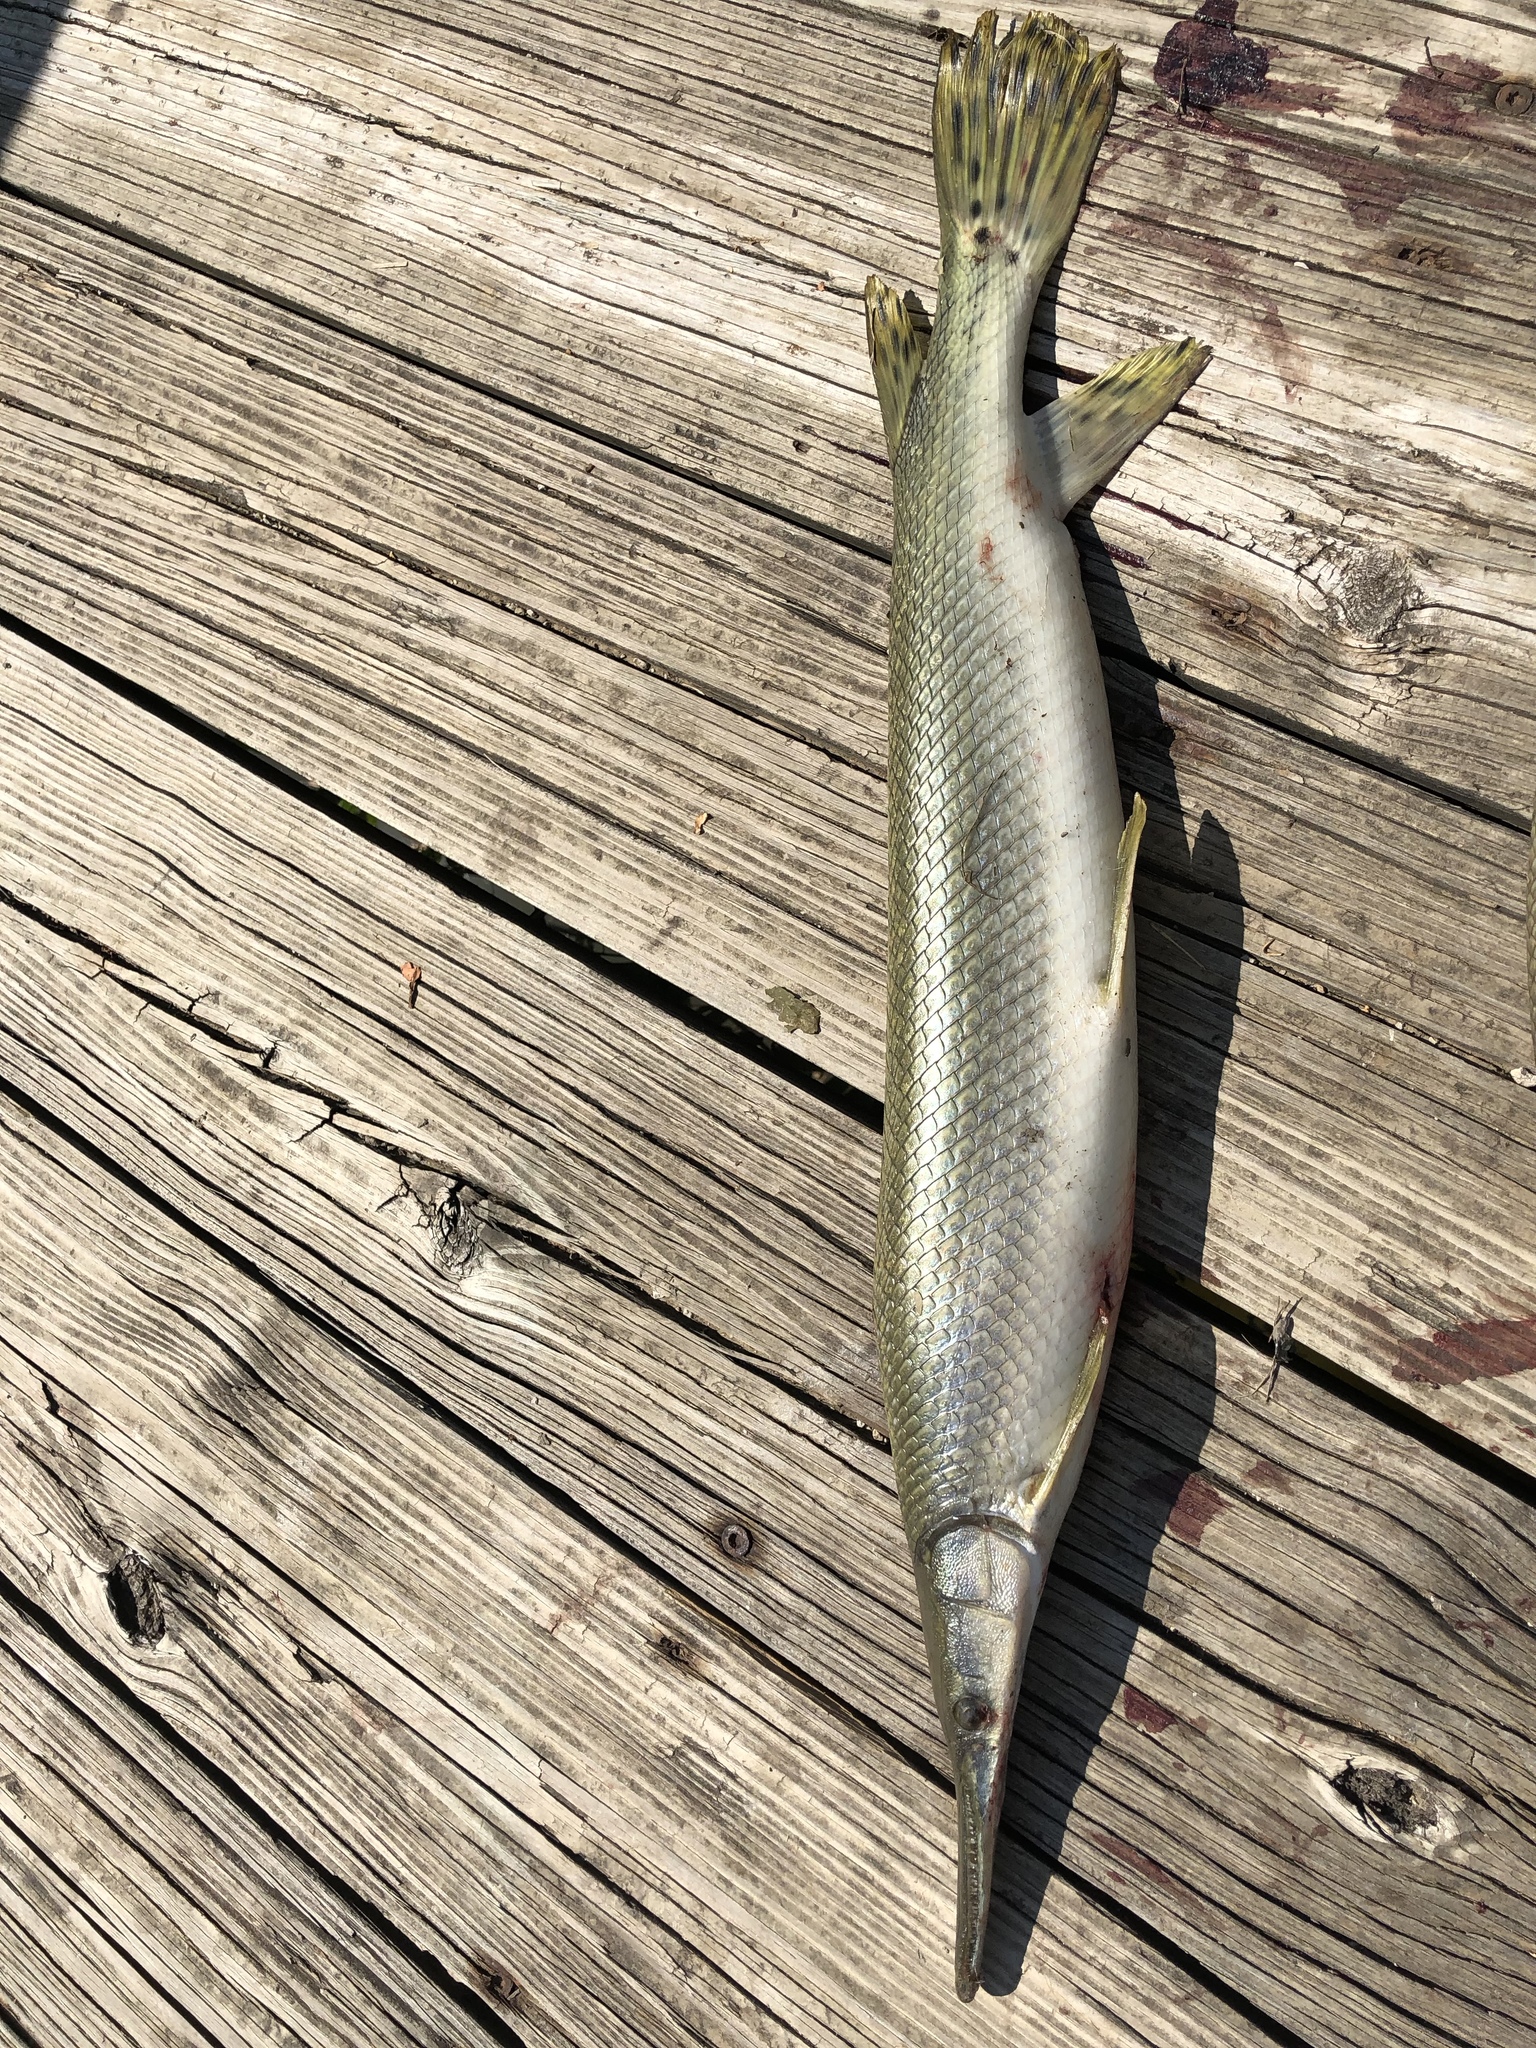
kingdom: Animalia
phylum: Chordata
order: Lepisosteiformes
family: Lepisosteidae
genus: Lepisosteus
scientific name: Lepisosteus platostomus
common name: Shortnose gar
